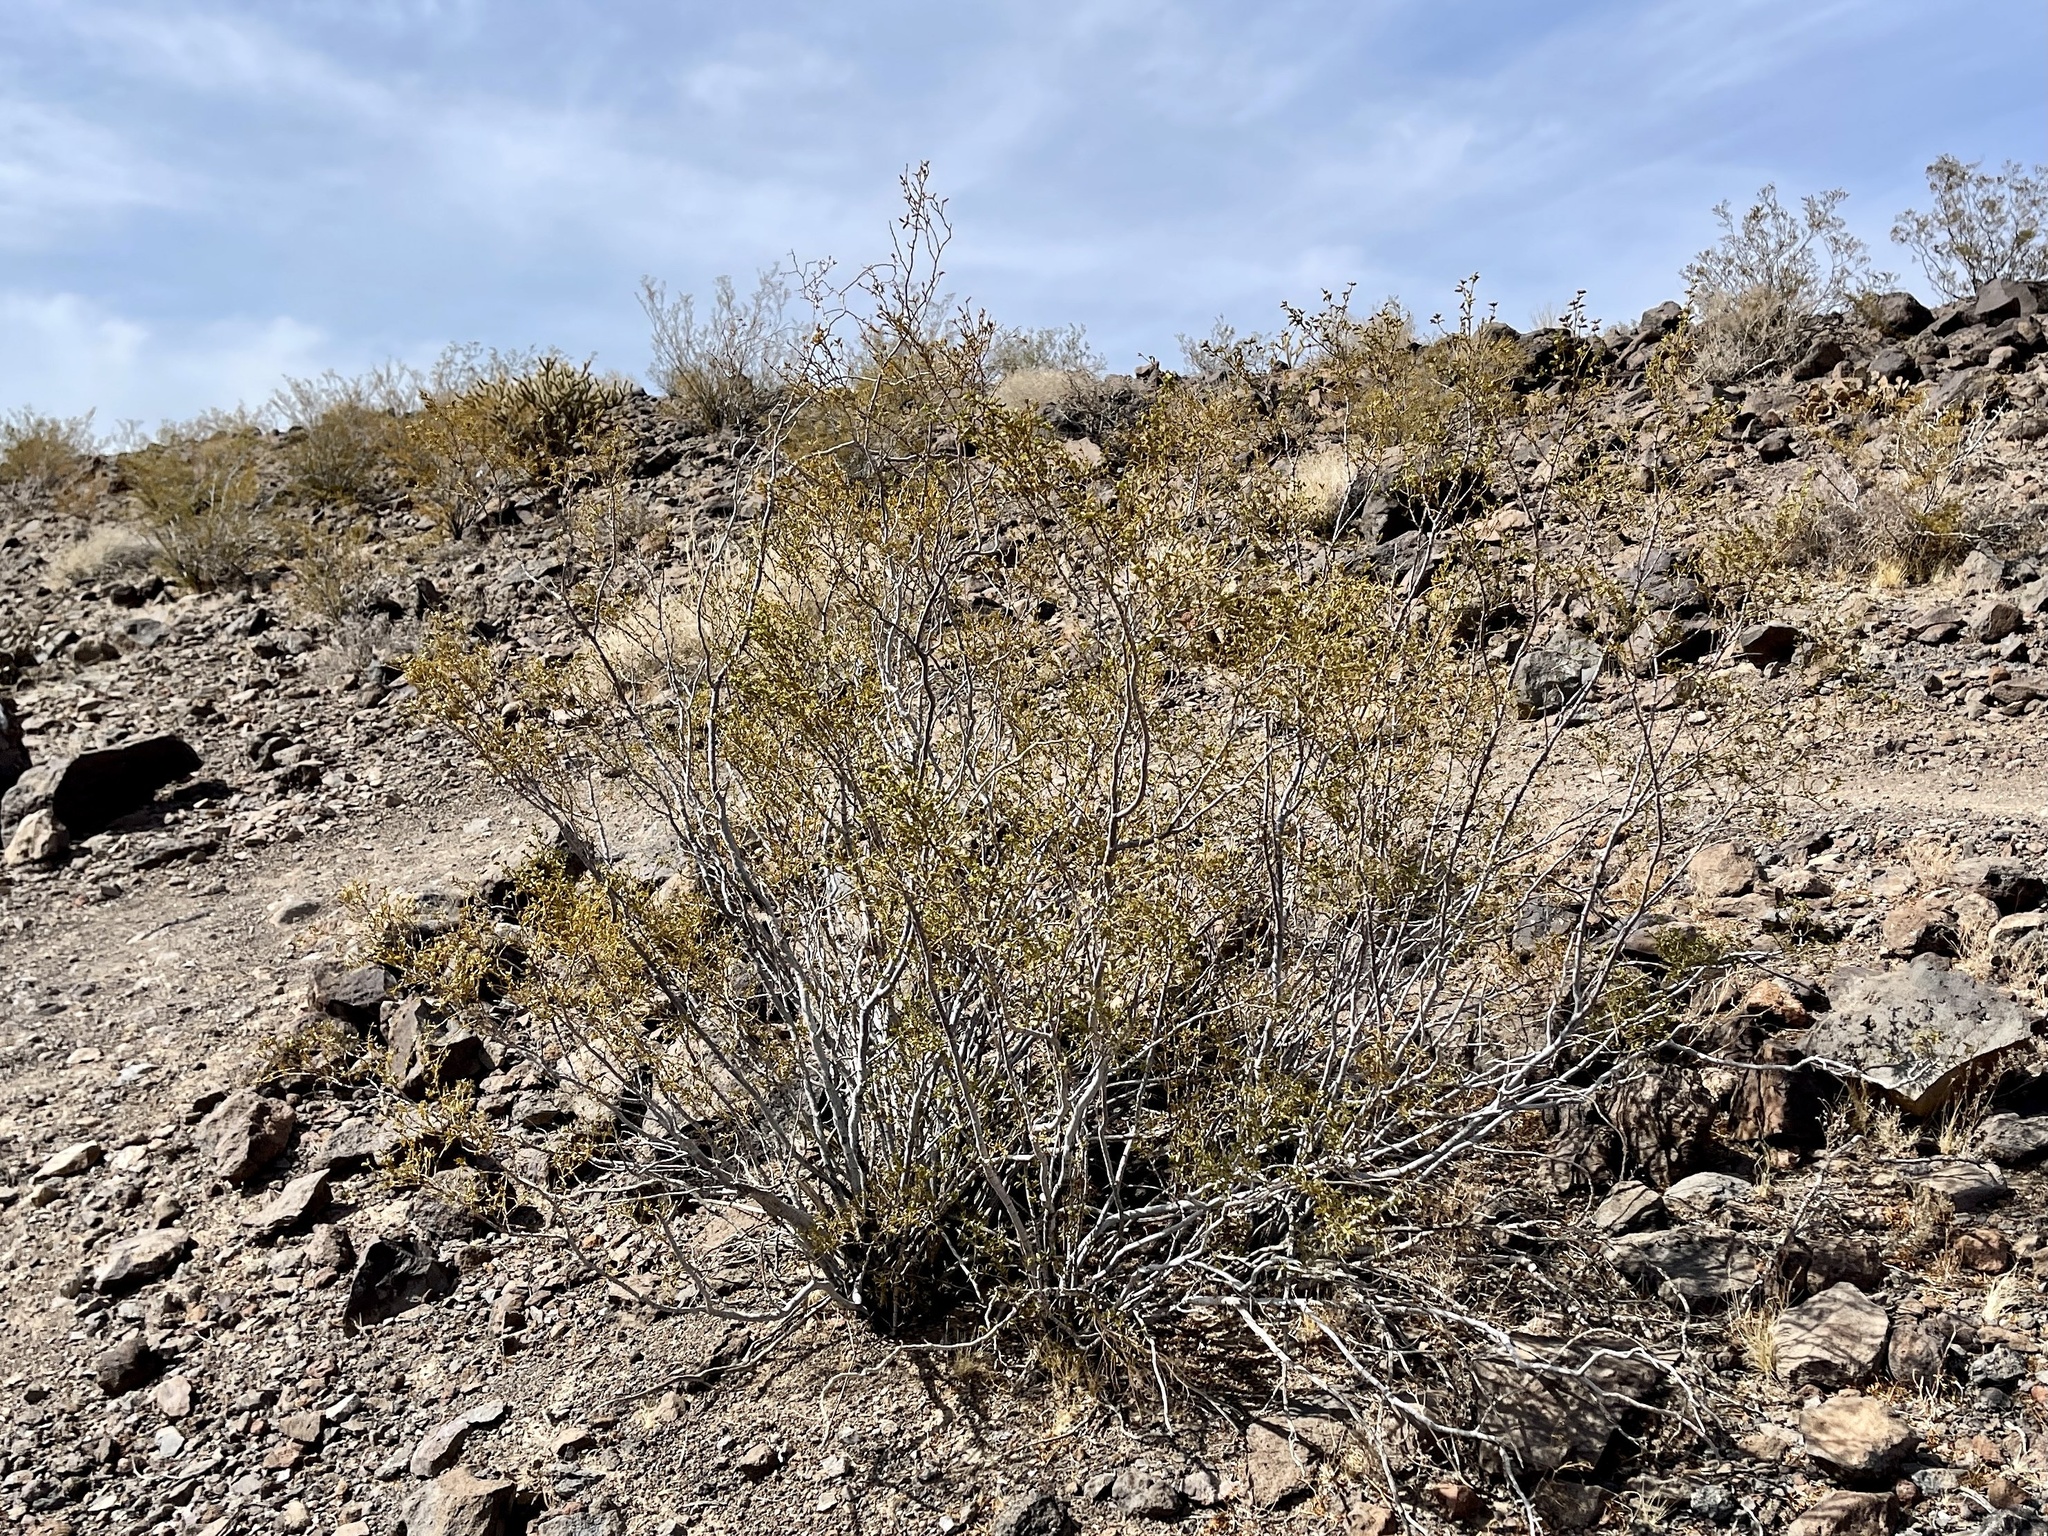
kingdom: Plantae
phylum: Tracheophyta
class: Magnoliopsida
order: Zygophyllales
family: Zygophyllaceae
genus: Larrea
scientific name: Larrea tridentata
